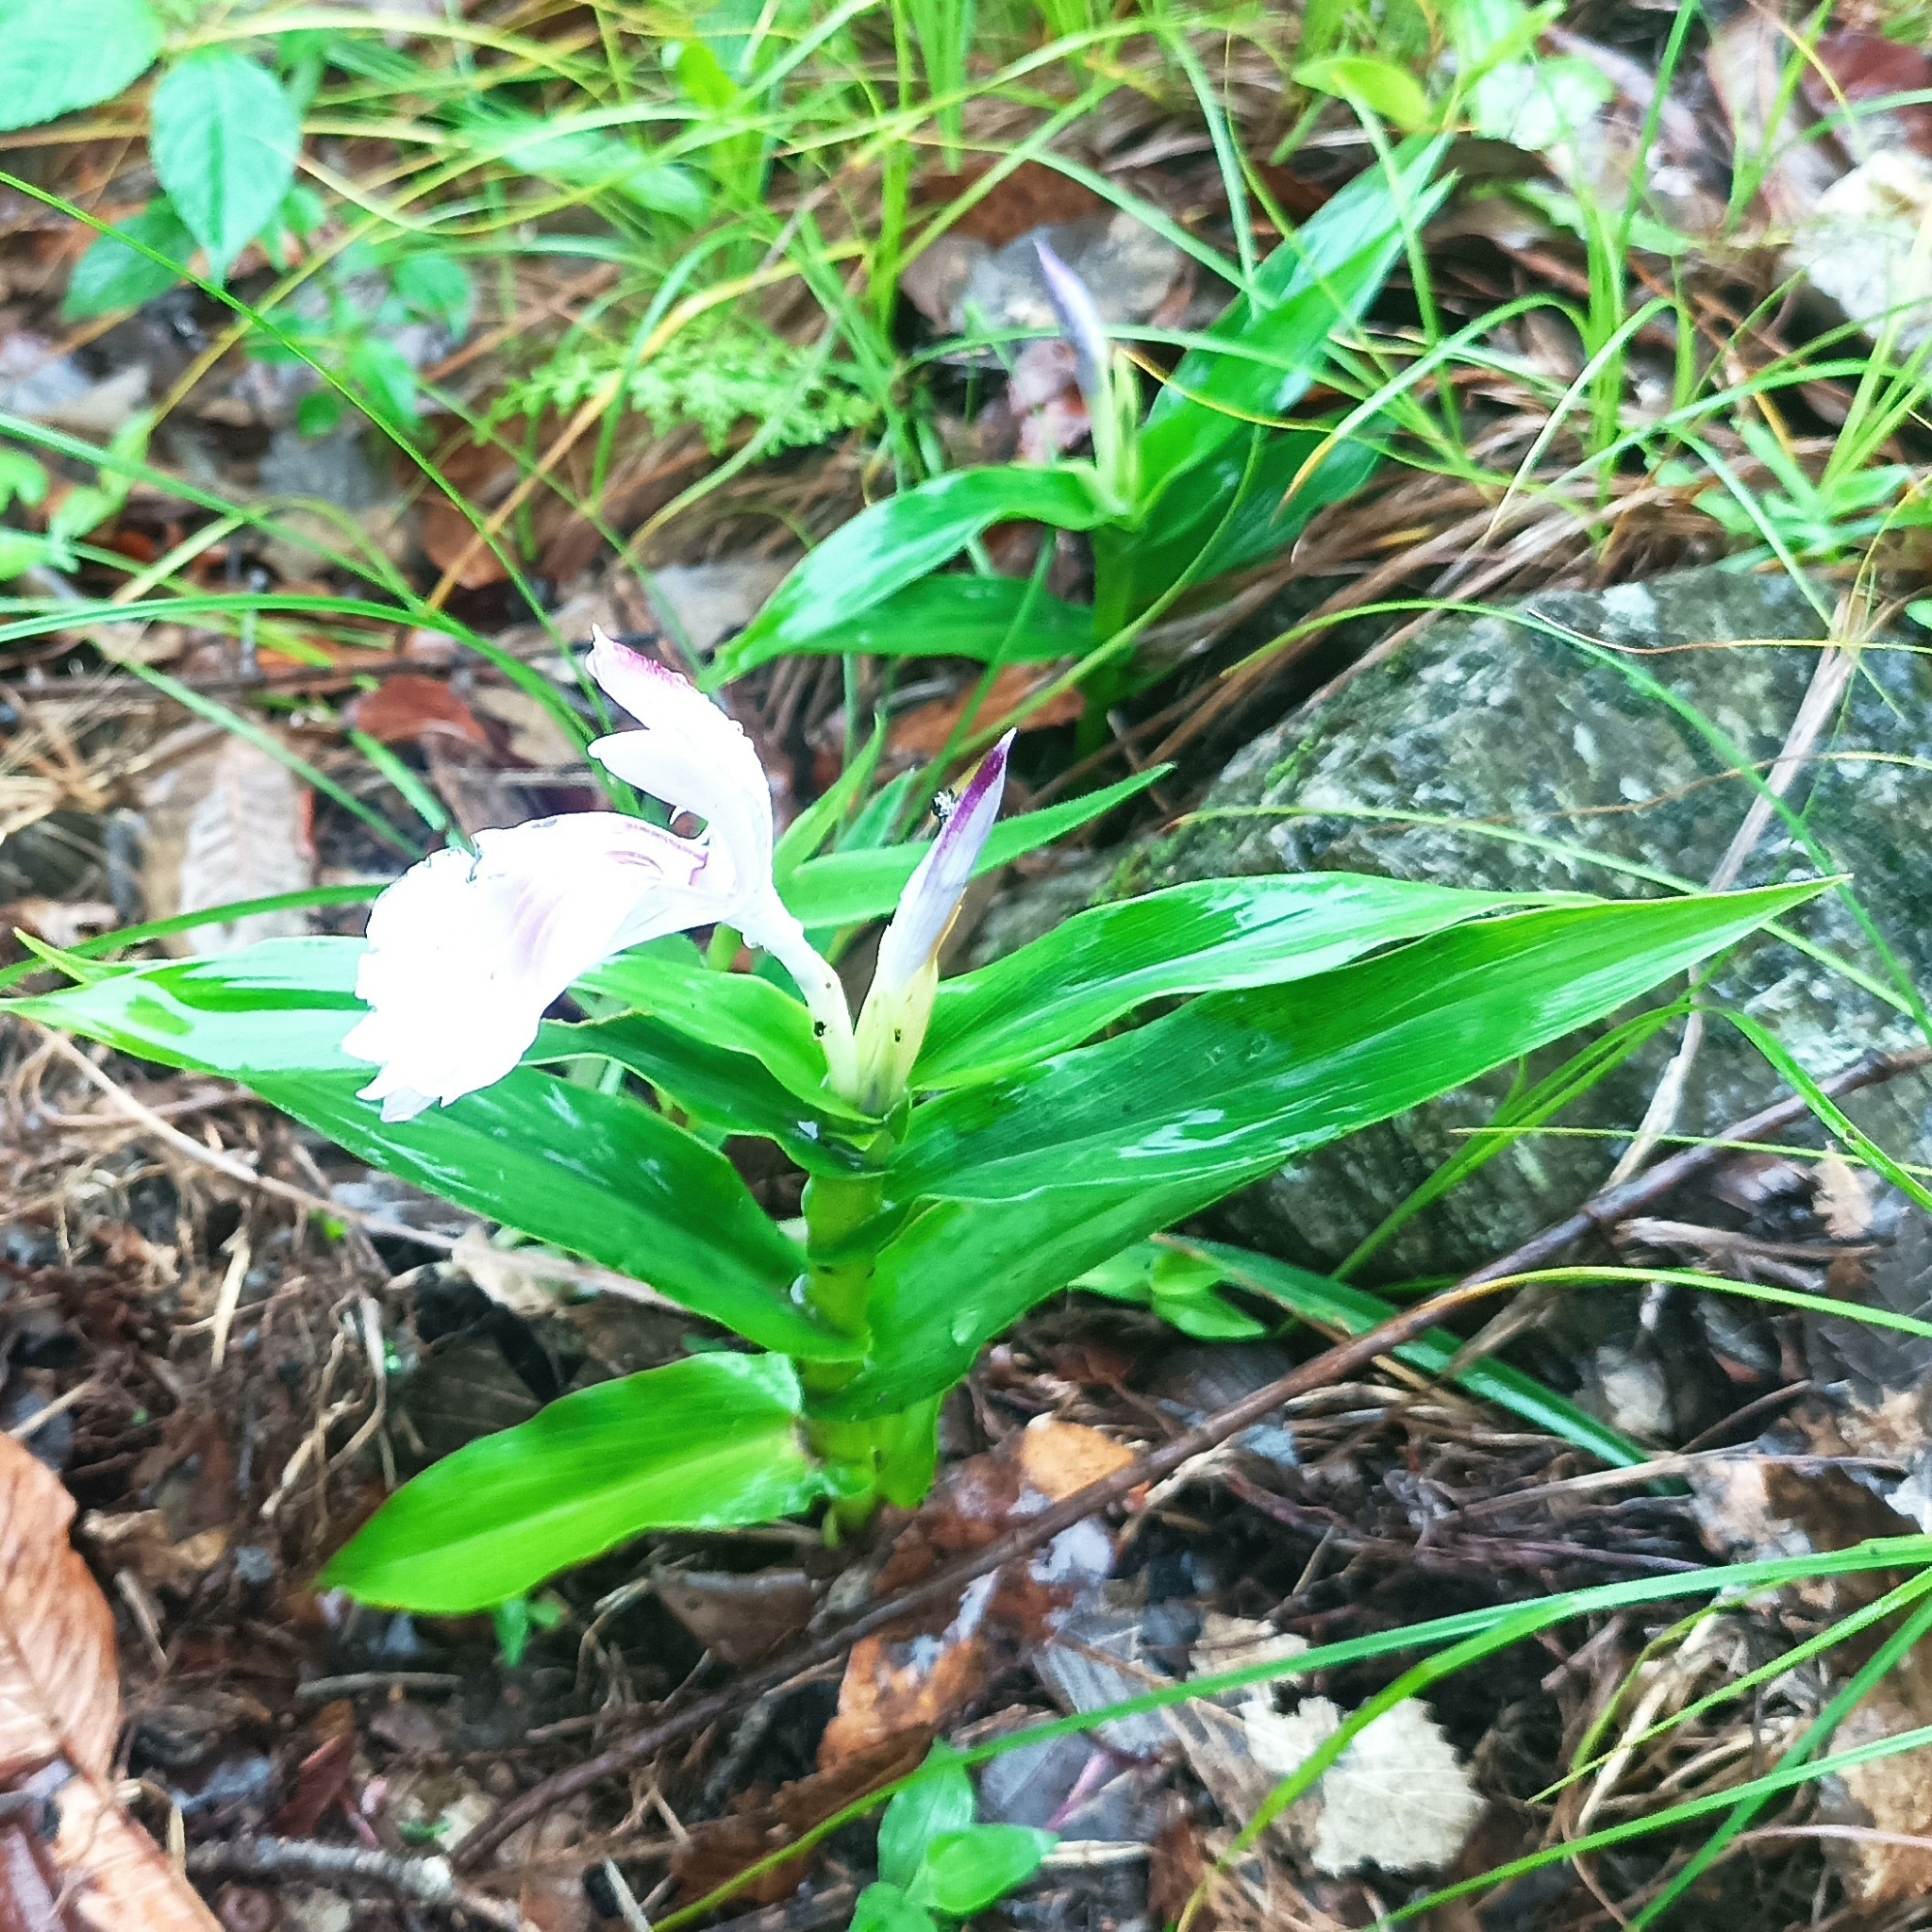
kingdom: Plantae
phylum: Tracheophyta
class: Liliopsida
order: Zingiberales
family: Zingiberaceae
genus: Roscoea
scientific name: Roscoea purpurea
